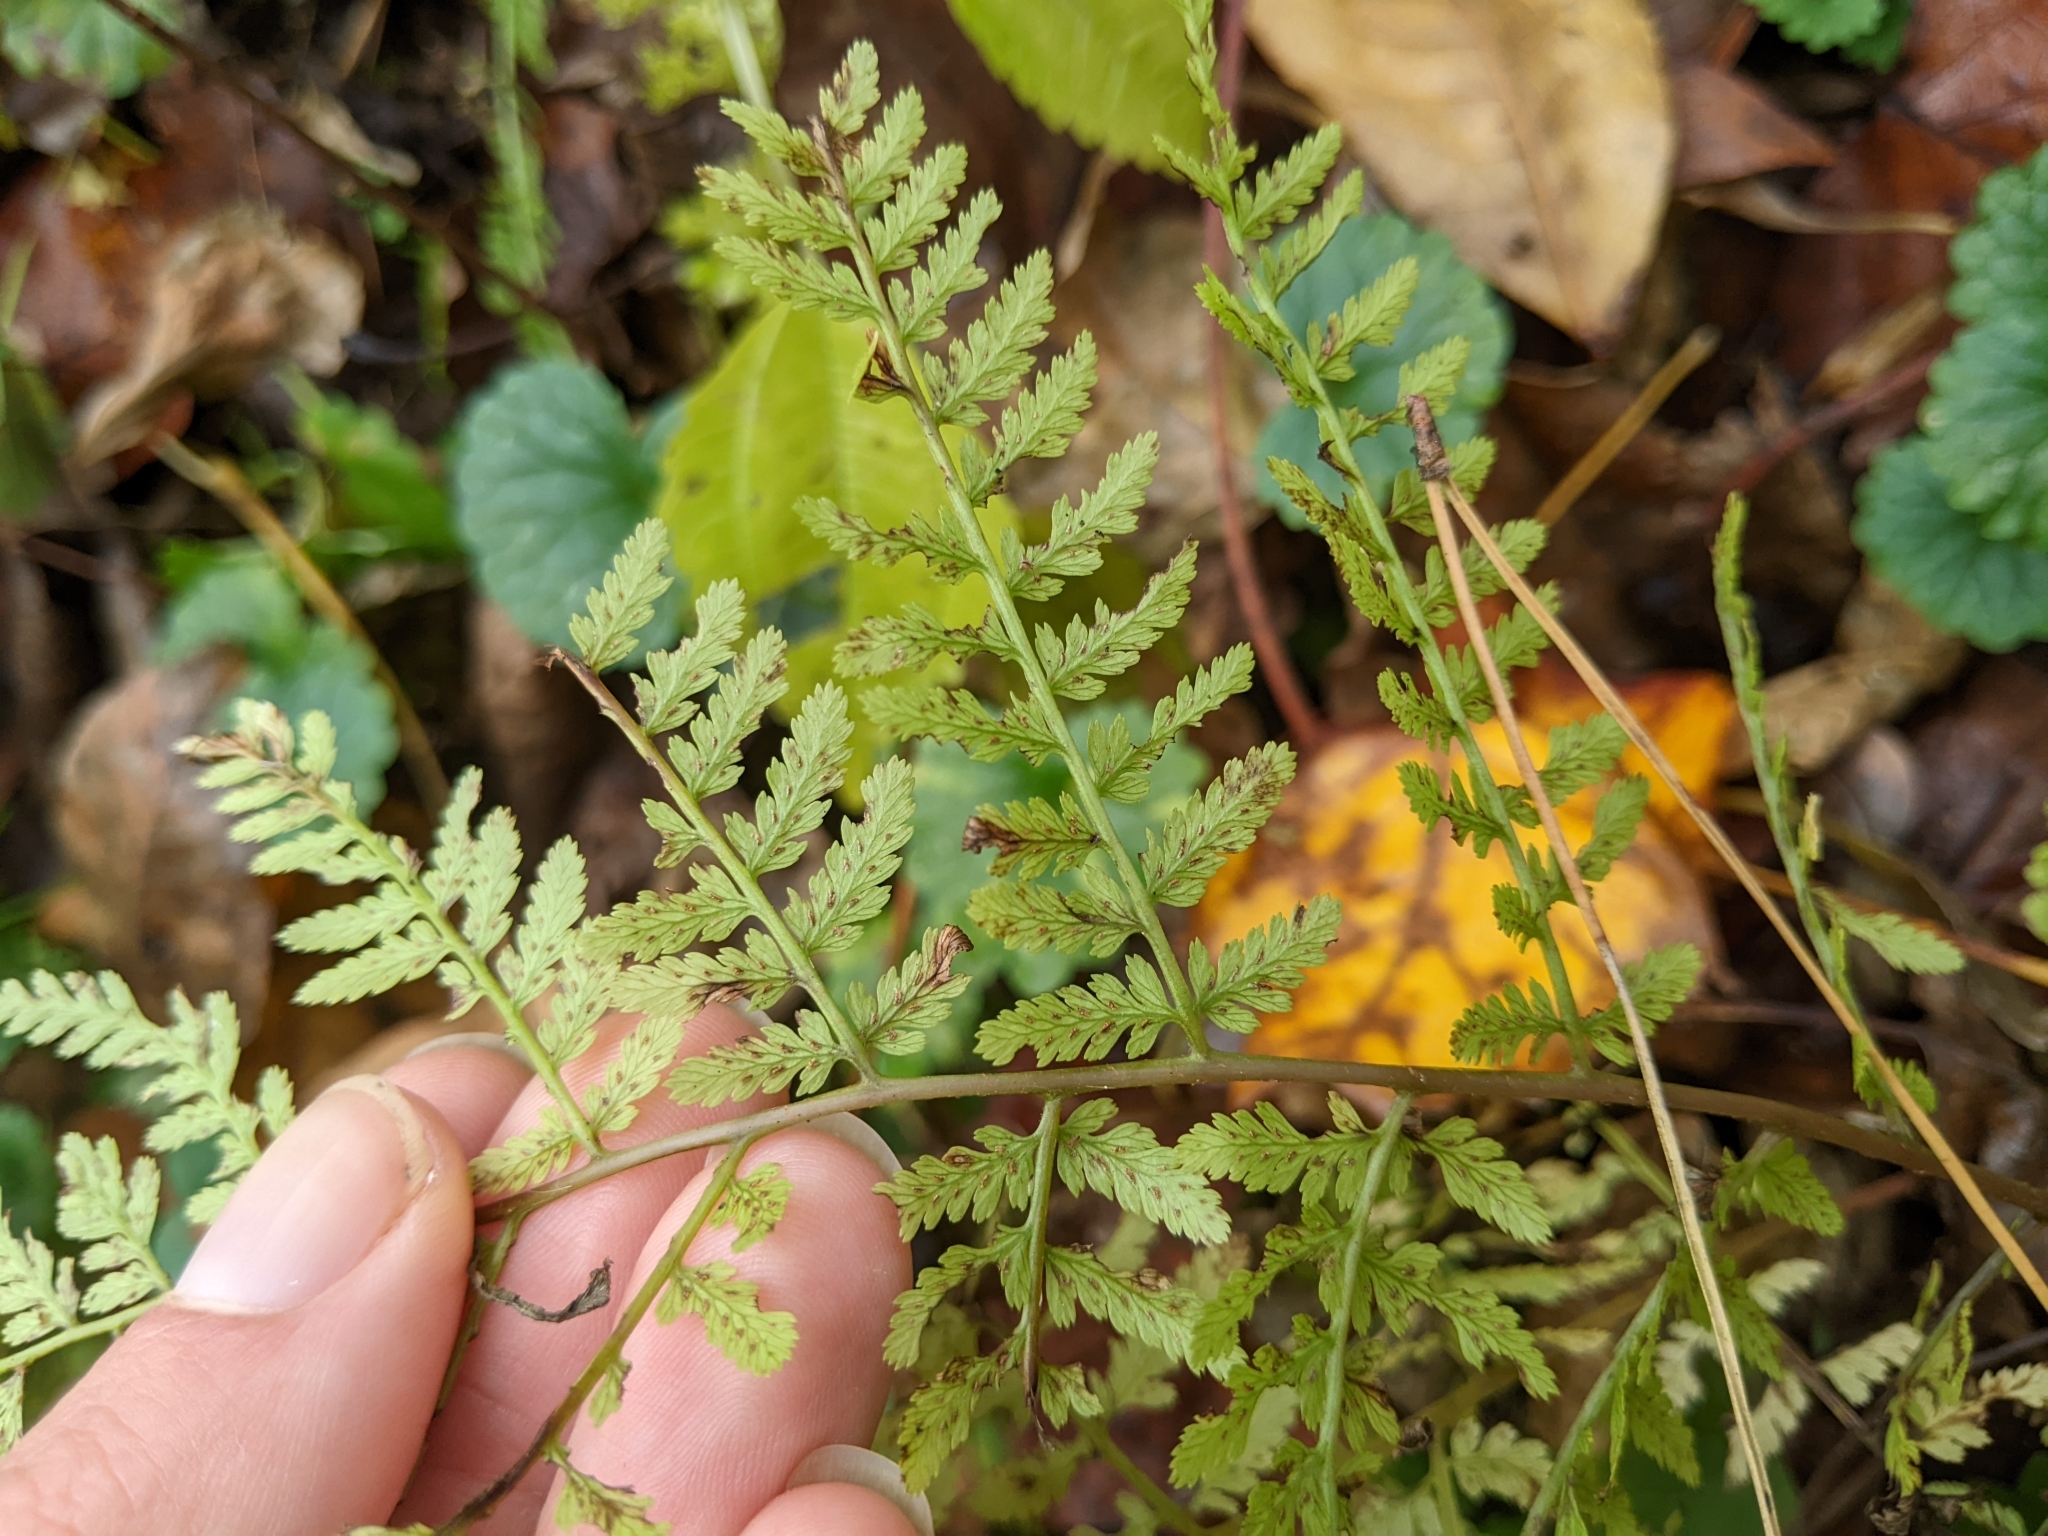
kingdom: Plantae
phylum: Tracheophyta
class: Polypodiopsida
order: Polypodiales
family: Athyriaceae
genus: Athyrium
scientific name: Athyrium asplenioides
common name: Southern lady fern
